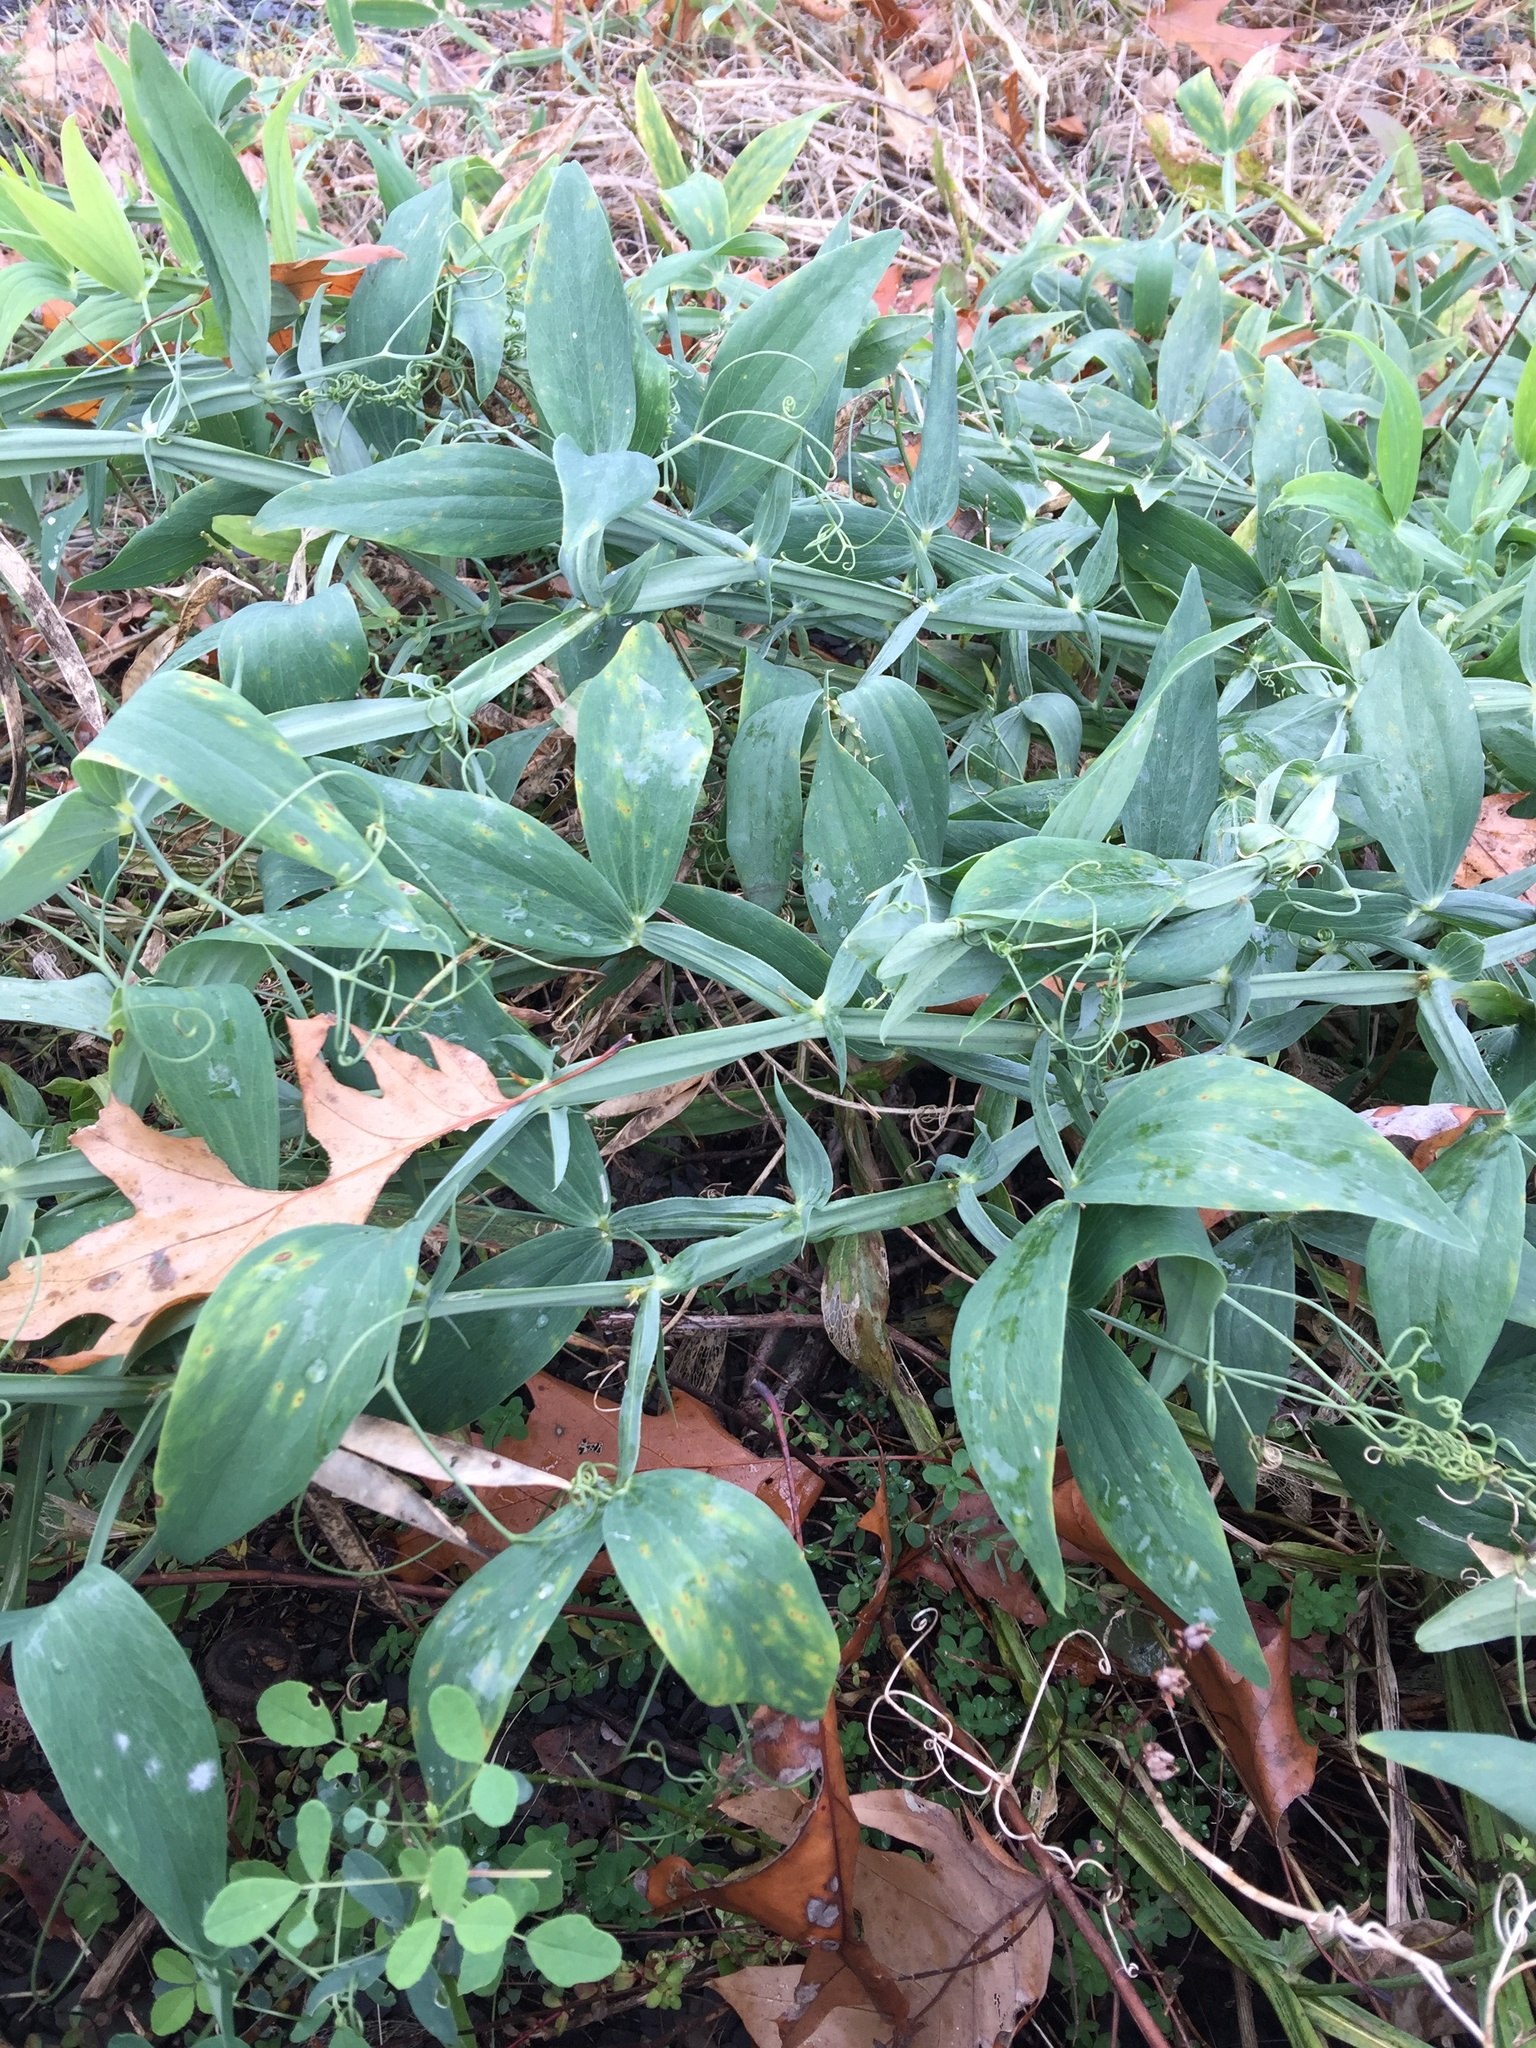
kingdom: Plantae
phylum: Tracheophyta
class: Magnoliopsida
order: Fabales
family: Fabaceae
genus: Lathyrus
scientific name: Lathyrus latifolius
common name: Perennial pea
